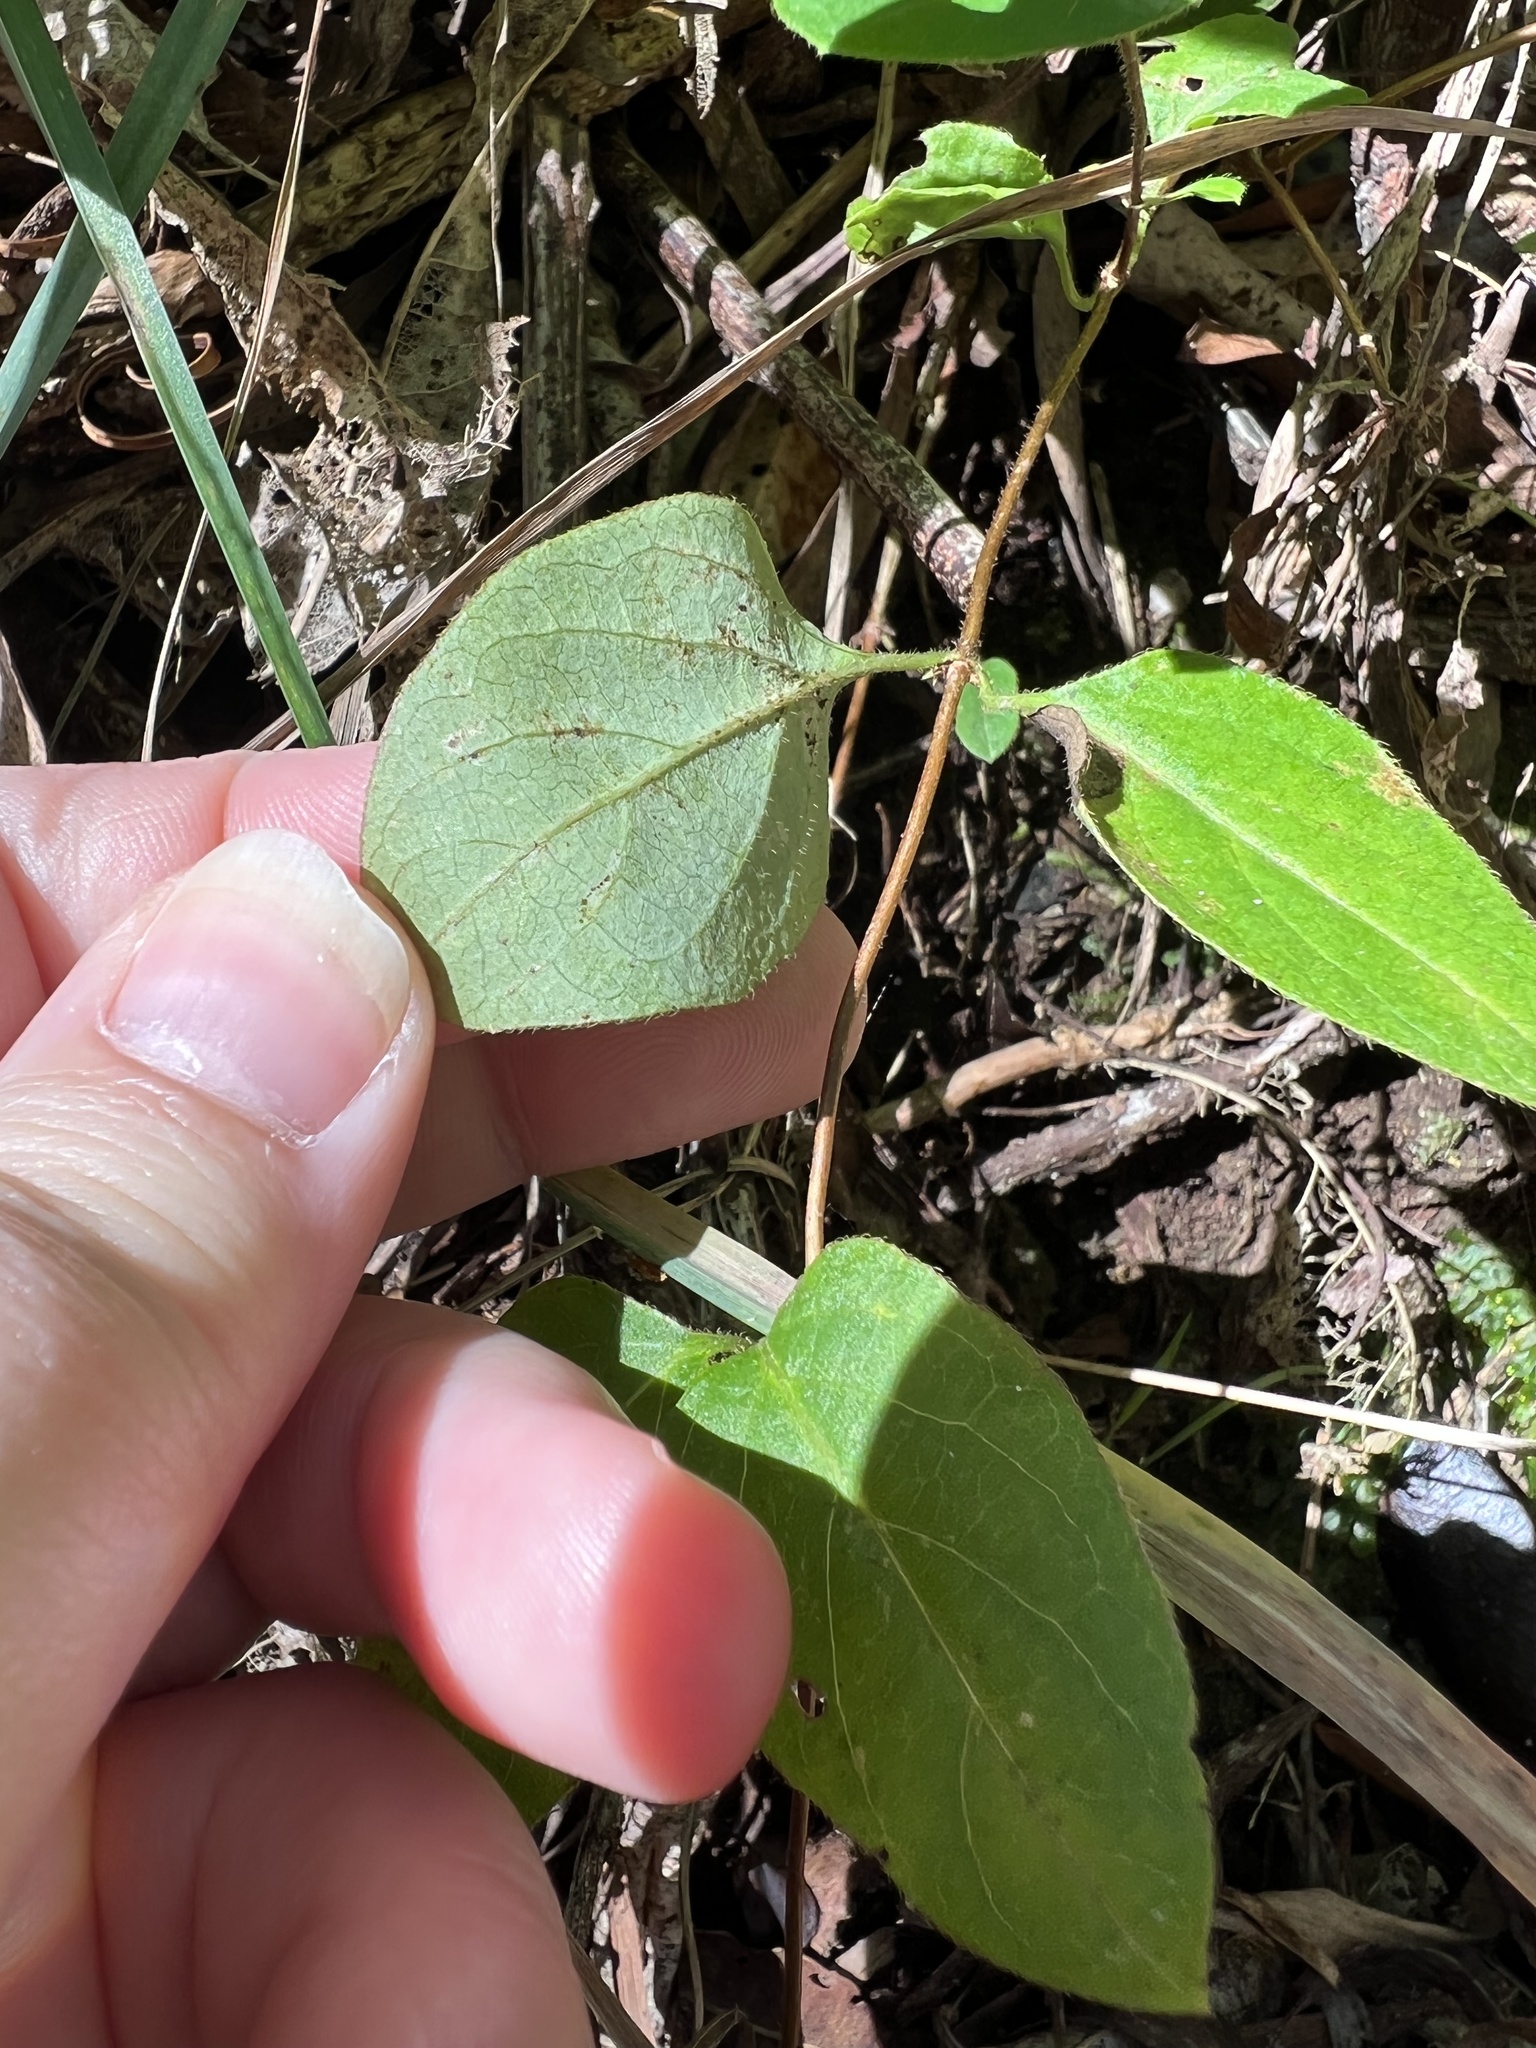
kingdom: Plantae
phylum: Tracheophyta
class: Magnoliopsida
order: Dipsacales
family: Caprifoliaceae
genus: Lonicera
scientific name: Lonicera japonica
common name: Japanese honeysuckle
